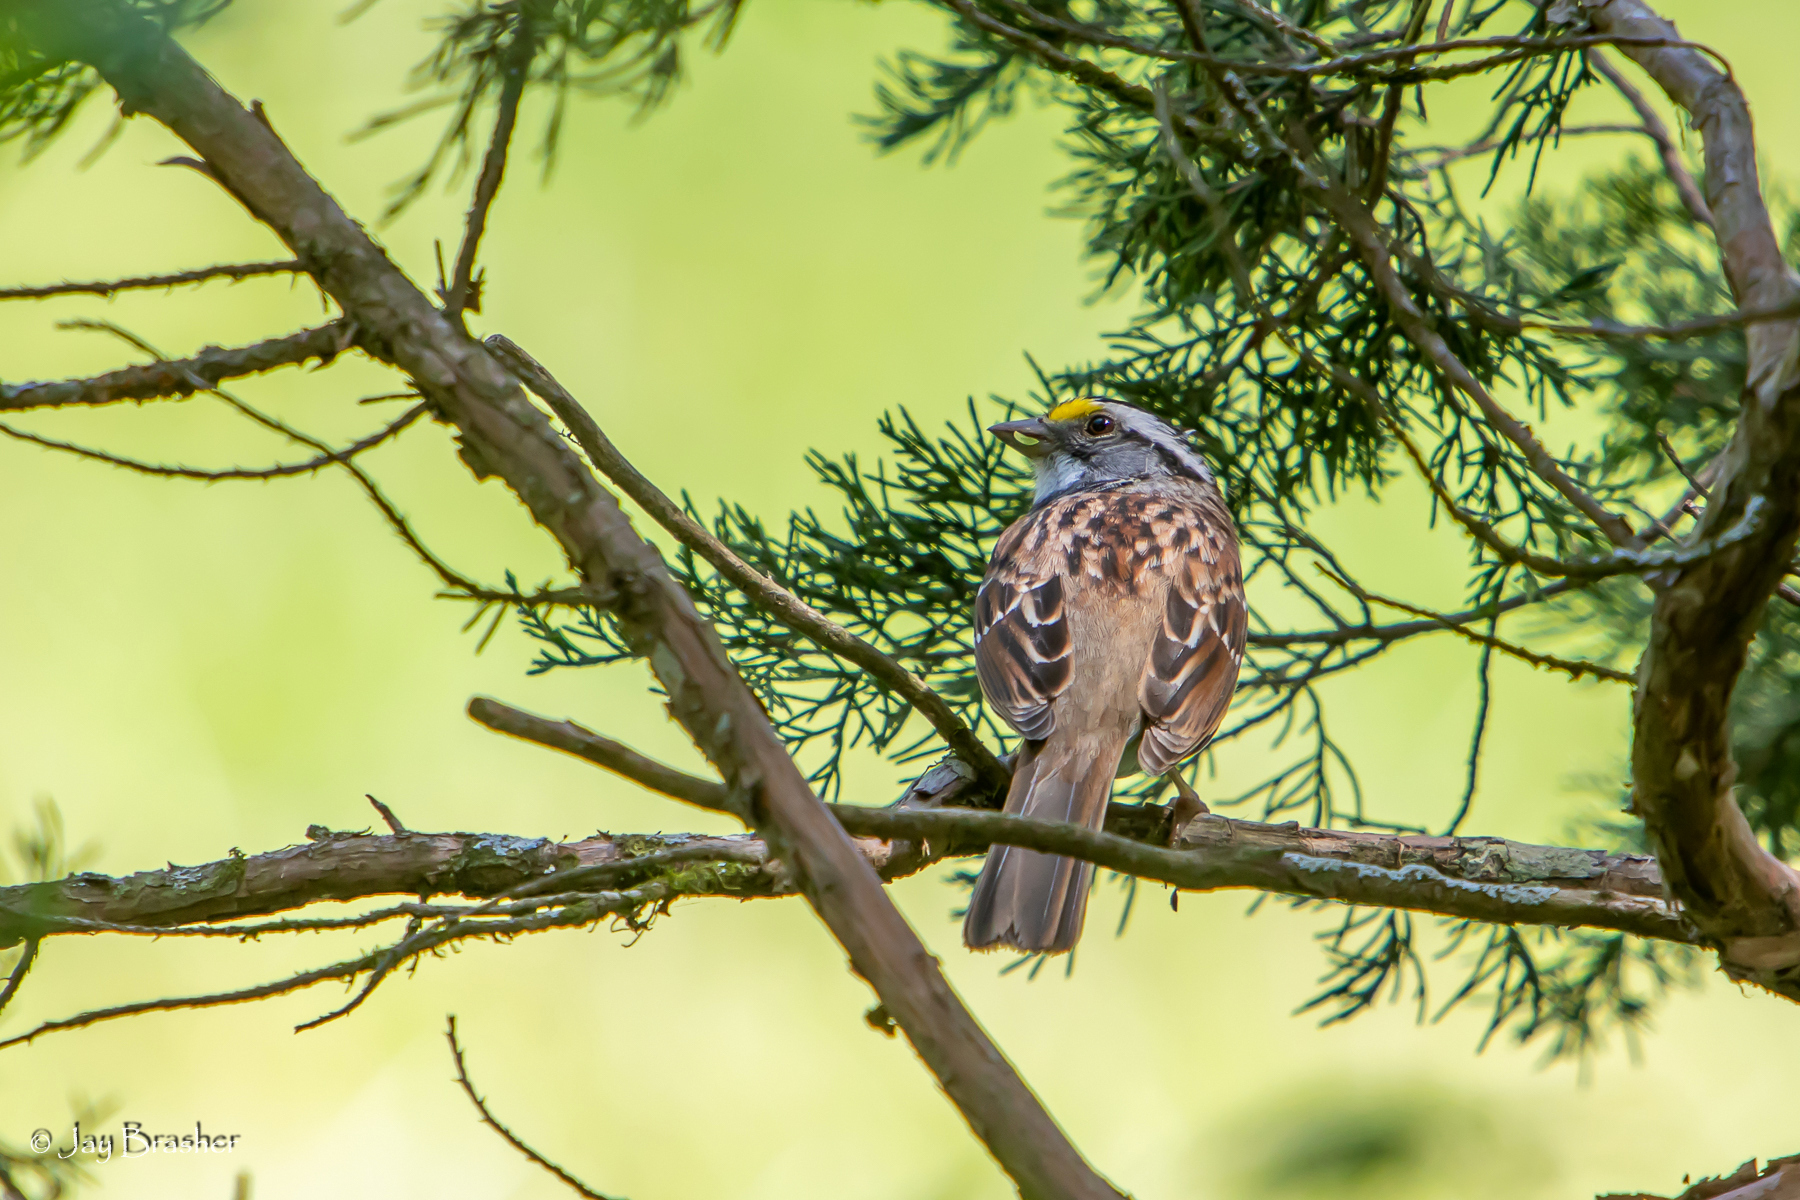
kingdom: Animalia
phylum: Chordata
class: Aves
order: Passeriformes
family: Passerellidae
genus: Zonotrichia
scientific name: Zonotrichia albicollis
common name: White-throated sparrow
